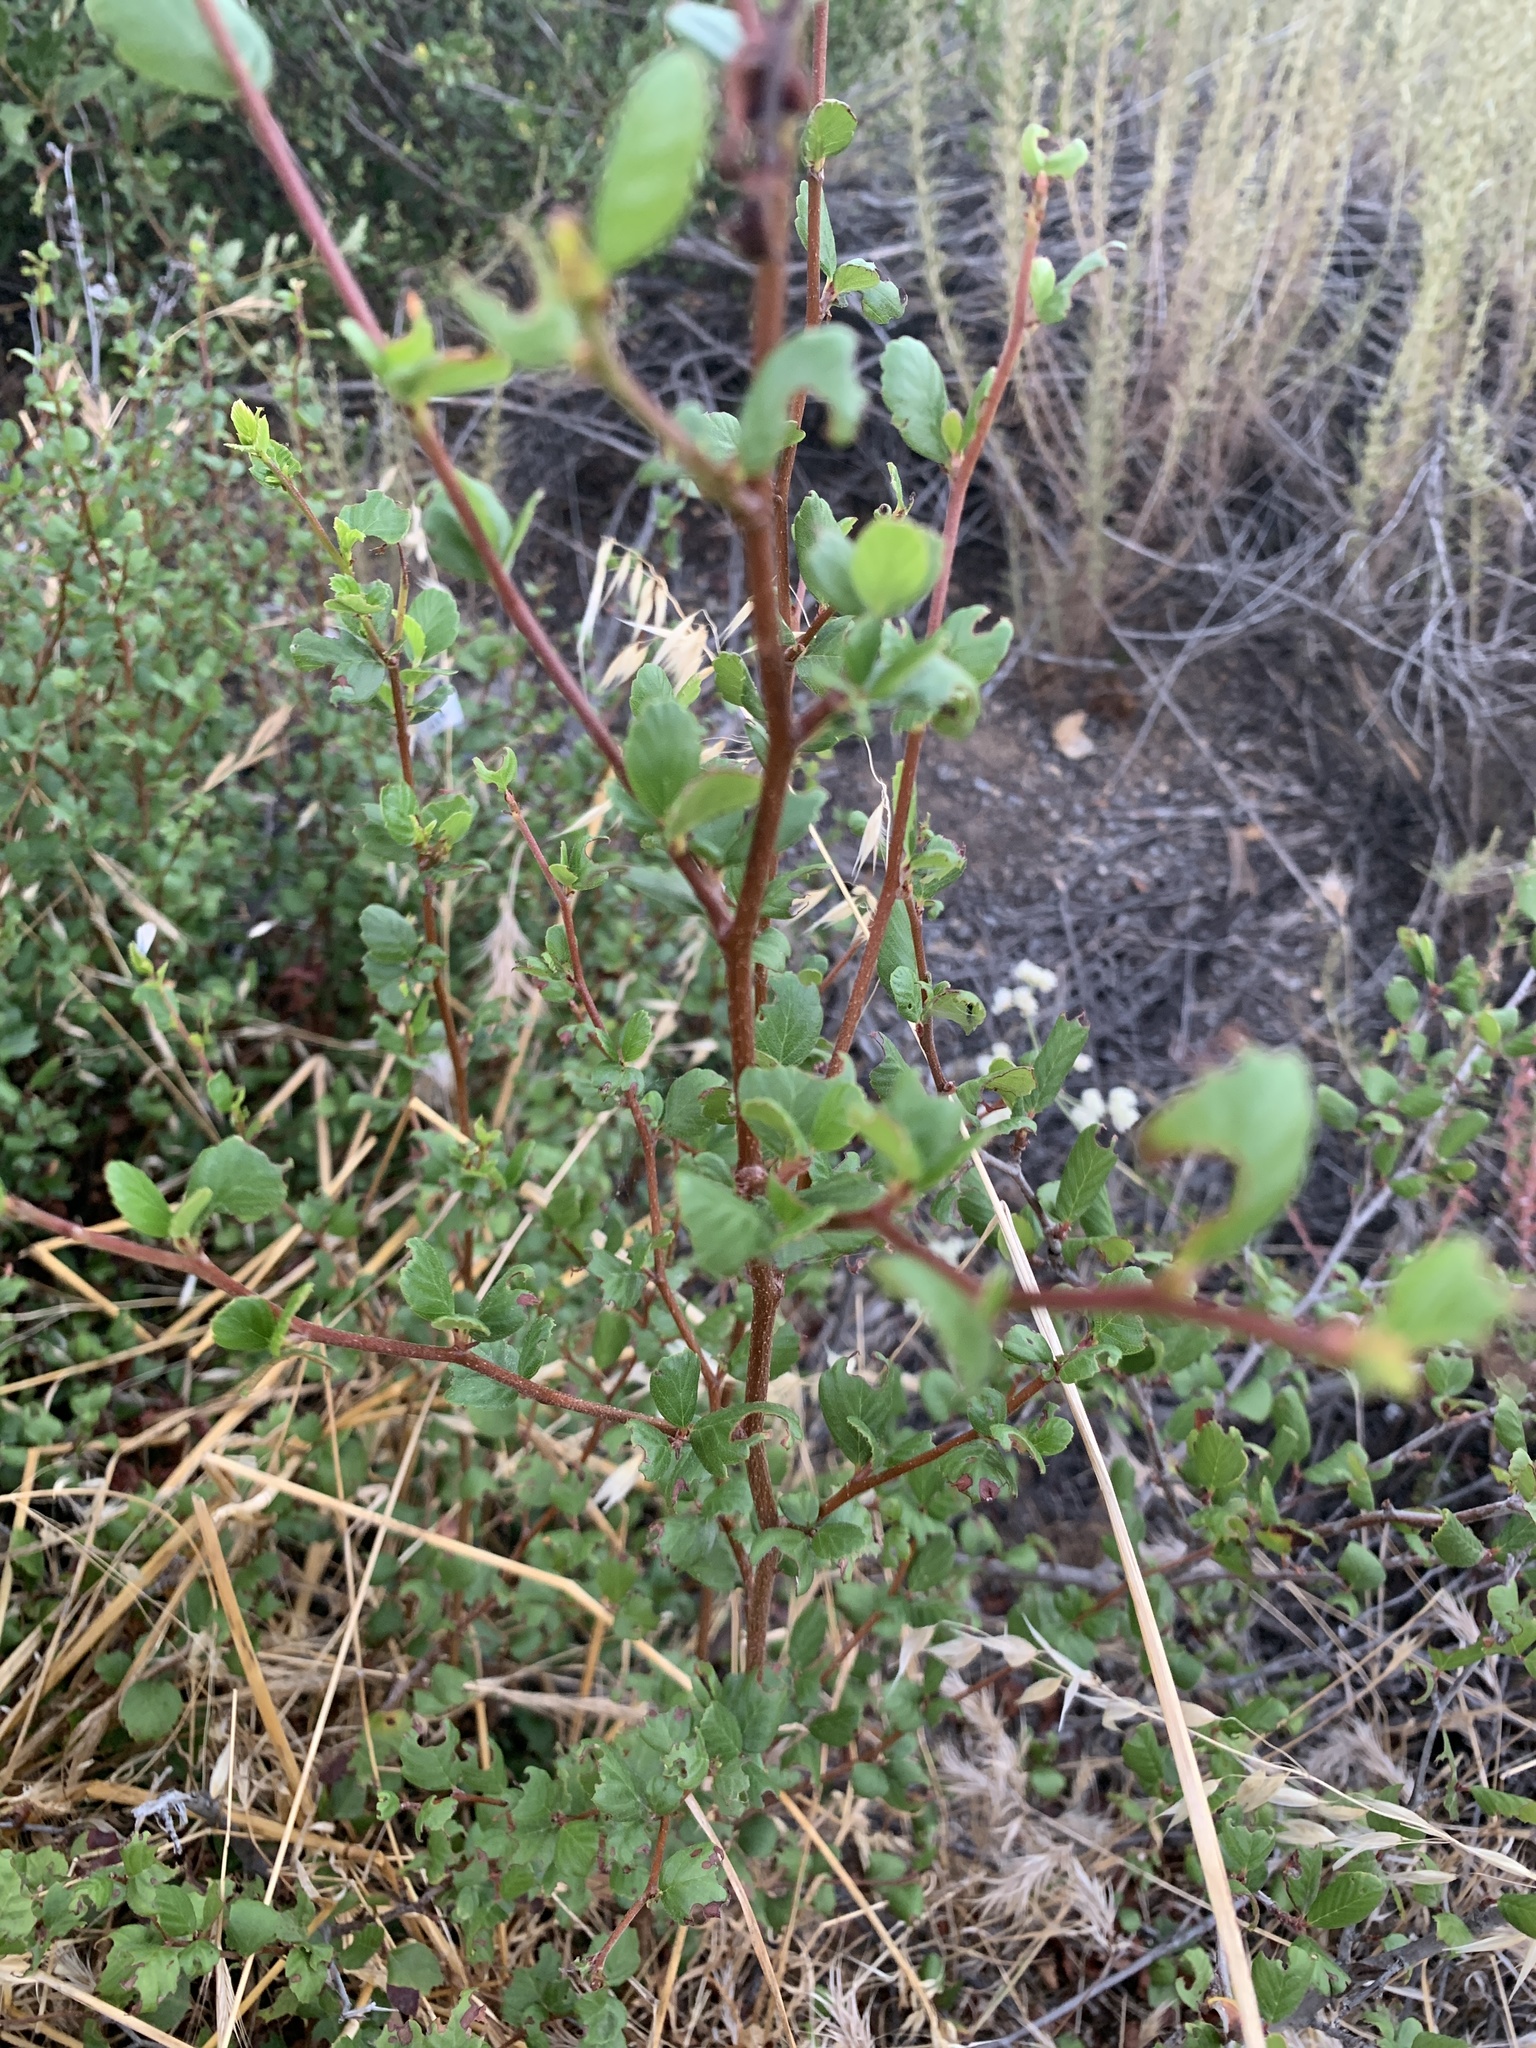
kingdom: Plantae
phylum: Tracheophyta
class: Magnoliopsida
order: Rosales
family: Rhamnaceae
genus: Endotropis
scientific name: Endotropis crocea
